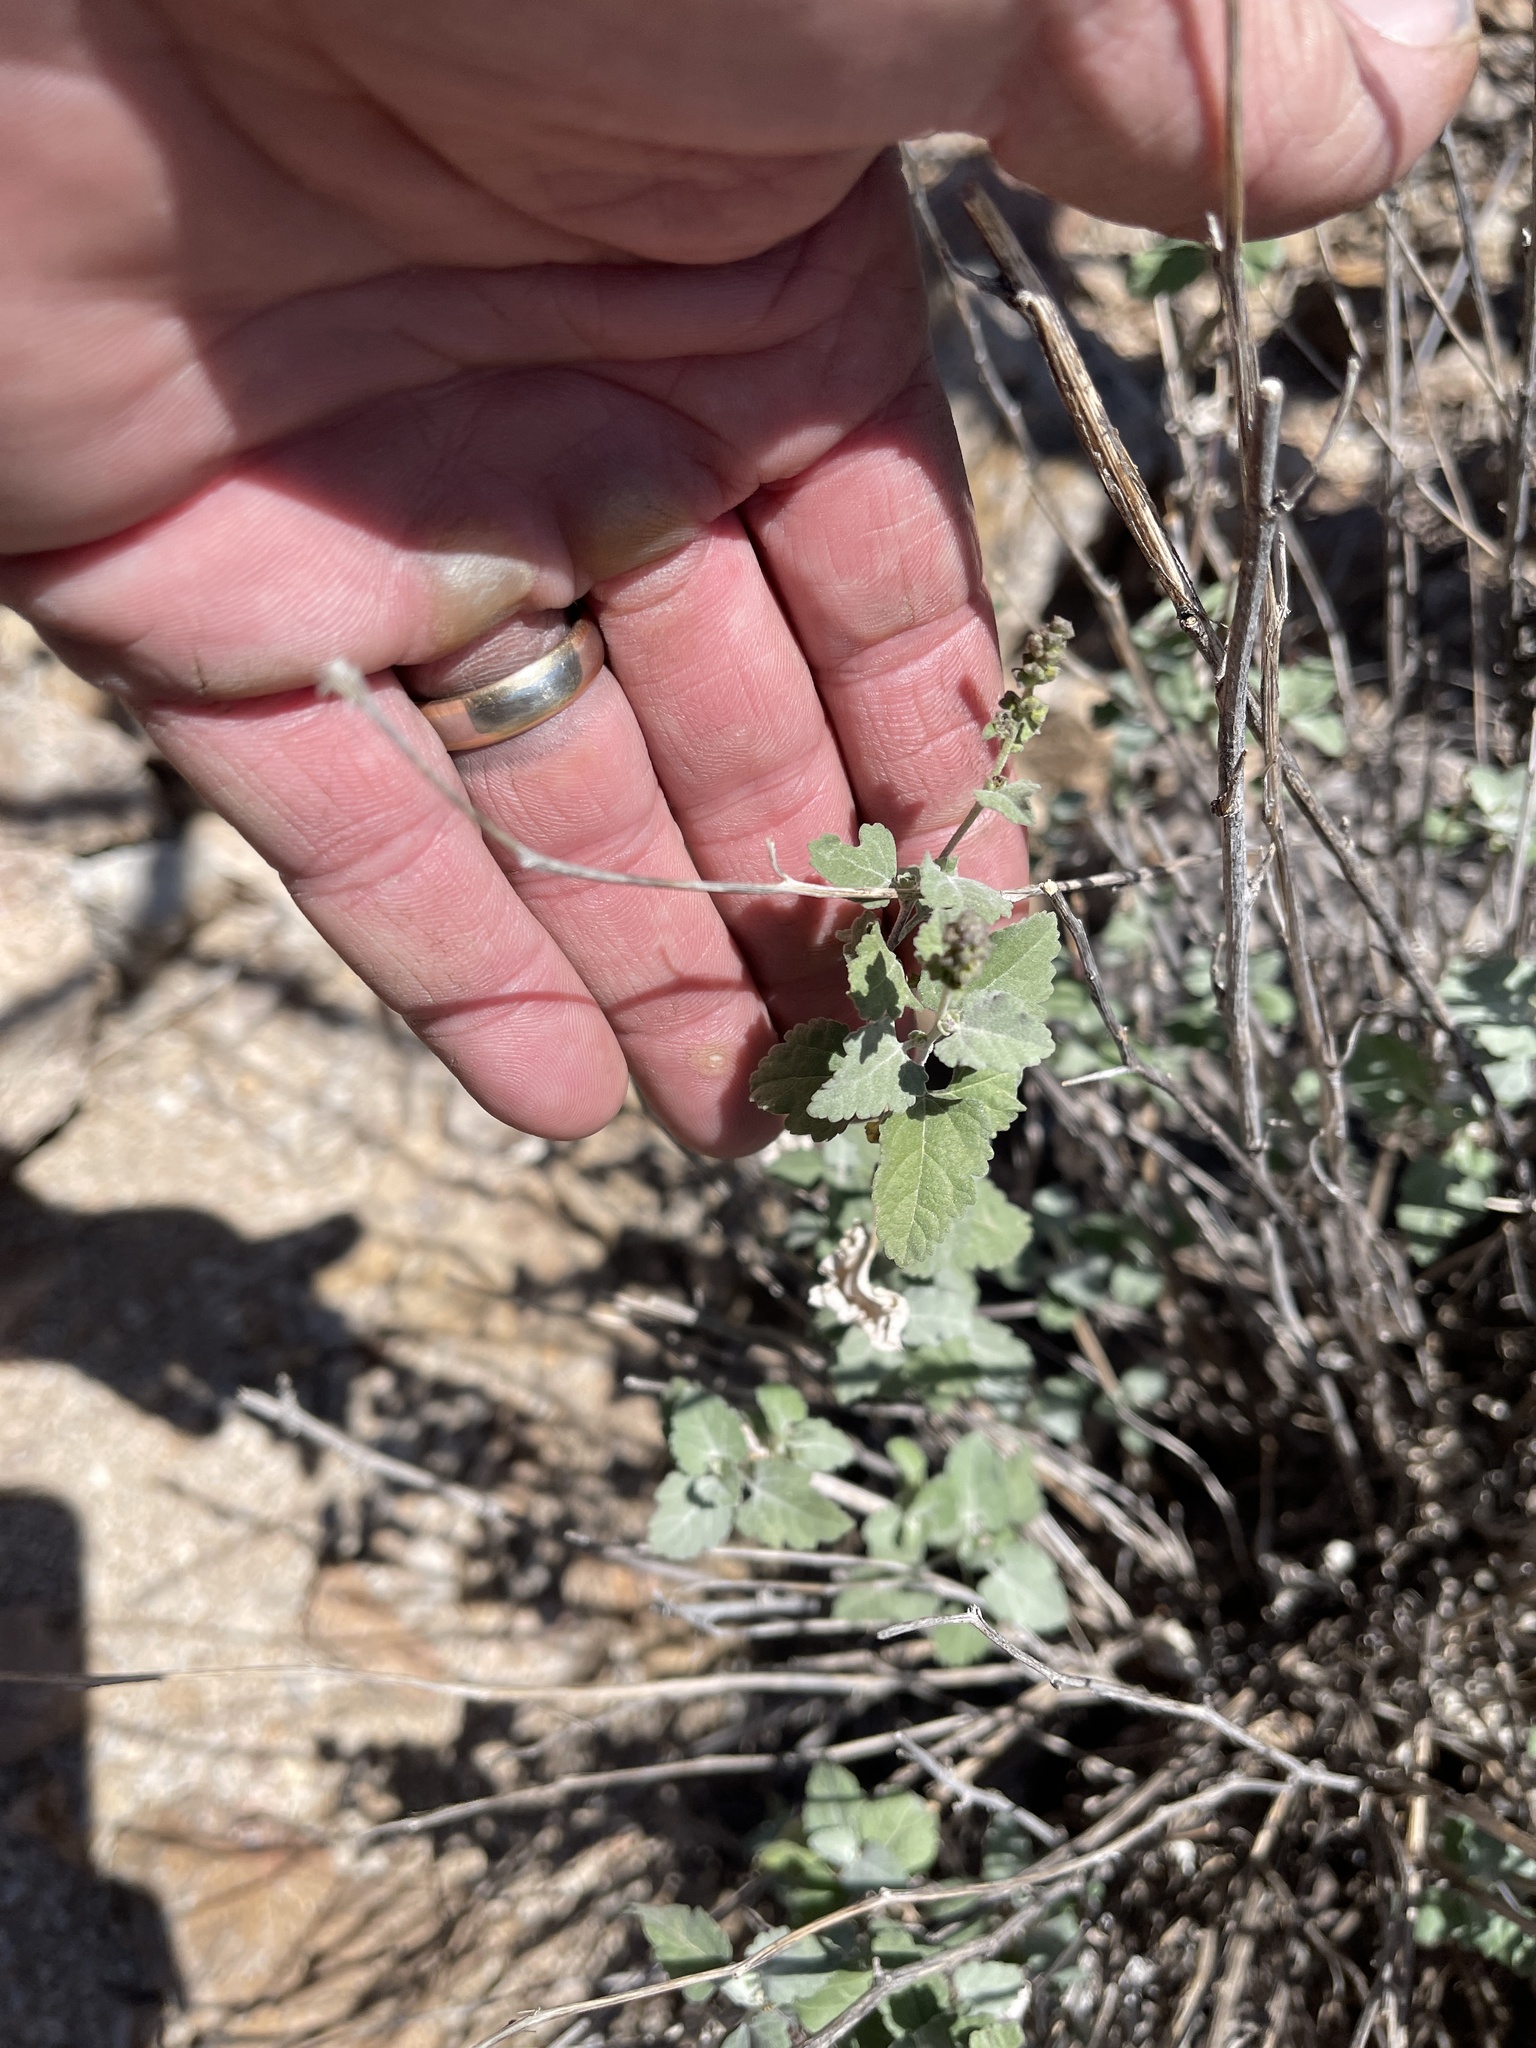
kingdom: Plantae
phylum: Tracheophyta
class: Magnoliopsida
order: Asterales
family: Asteraceae
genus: Ambrosia
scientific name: Ambrosia cordifolia
